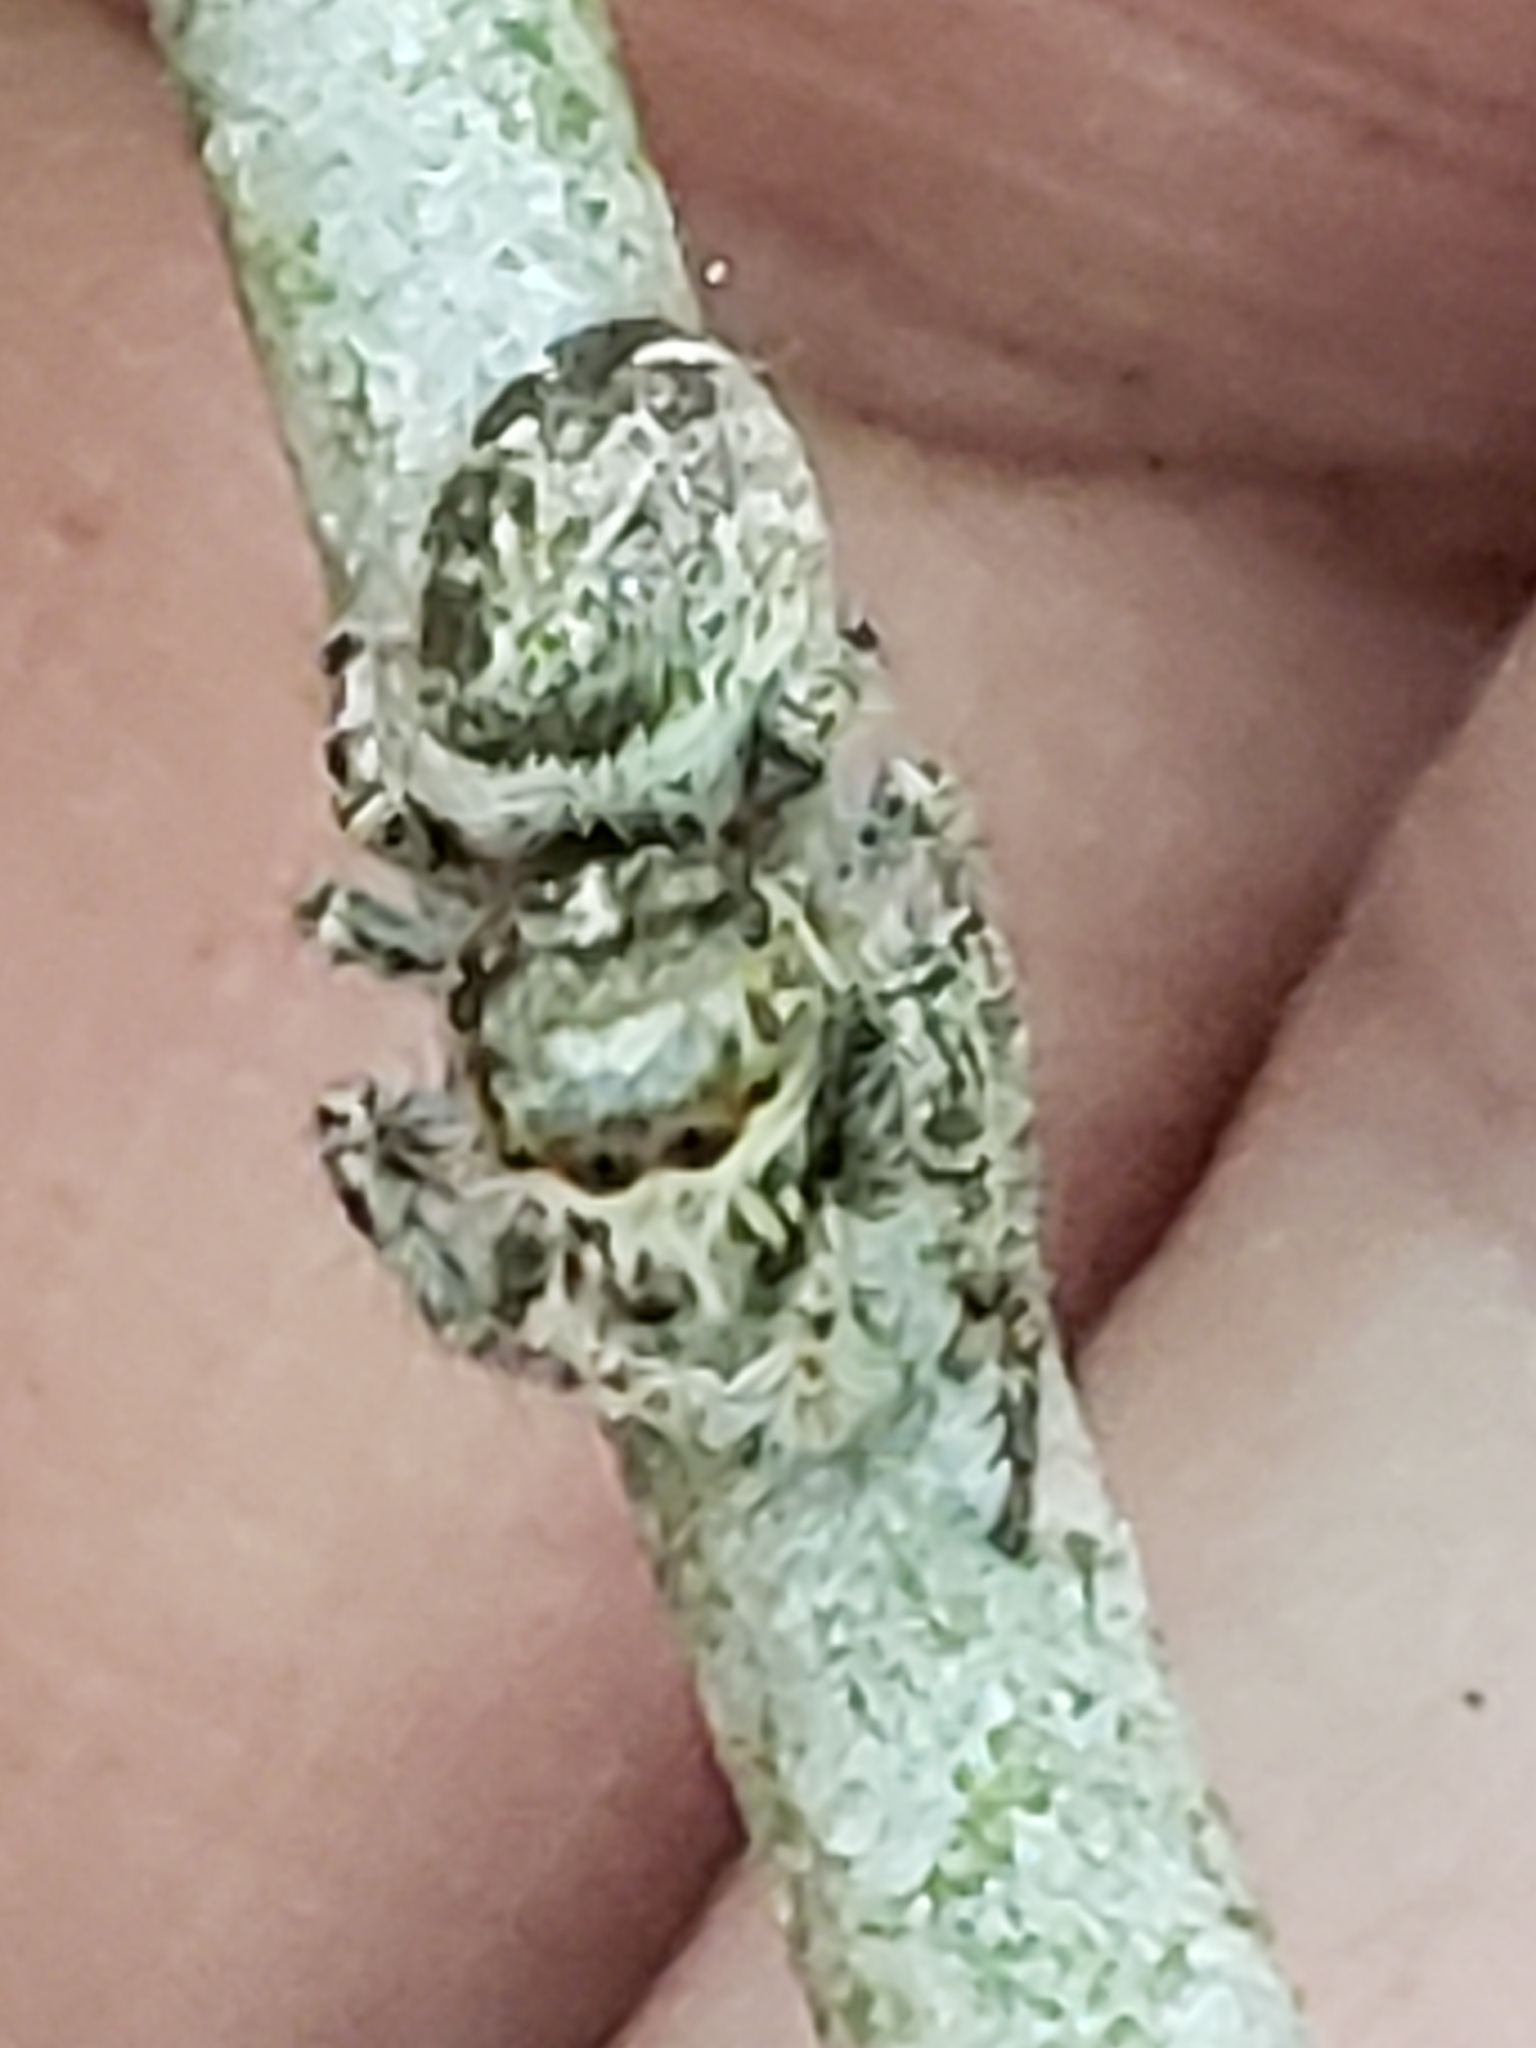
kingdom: Animalia
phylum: Arthropoda
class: Arachnida
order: Araneae
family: Salticidae
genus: Eris
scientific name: Eris militaris
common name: Bronze jumper
